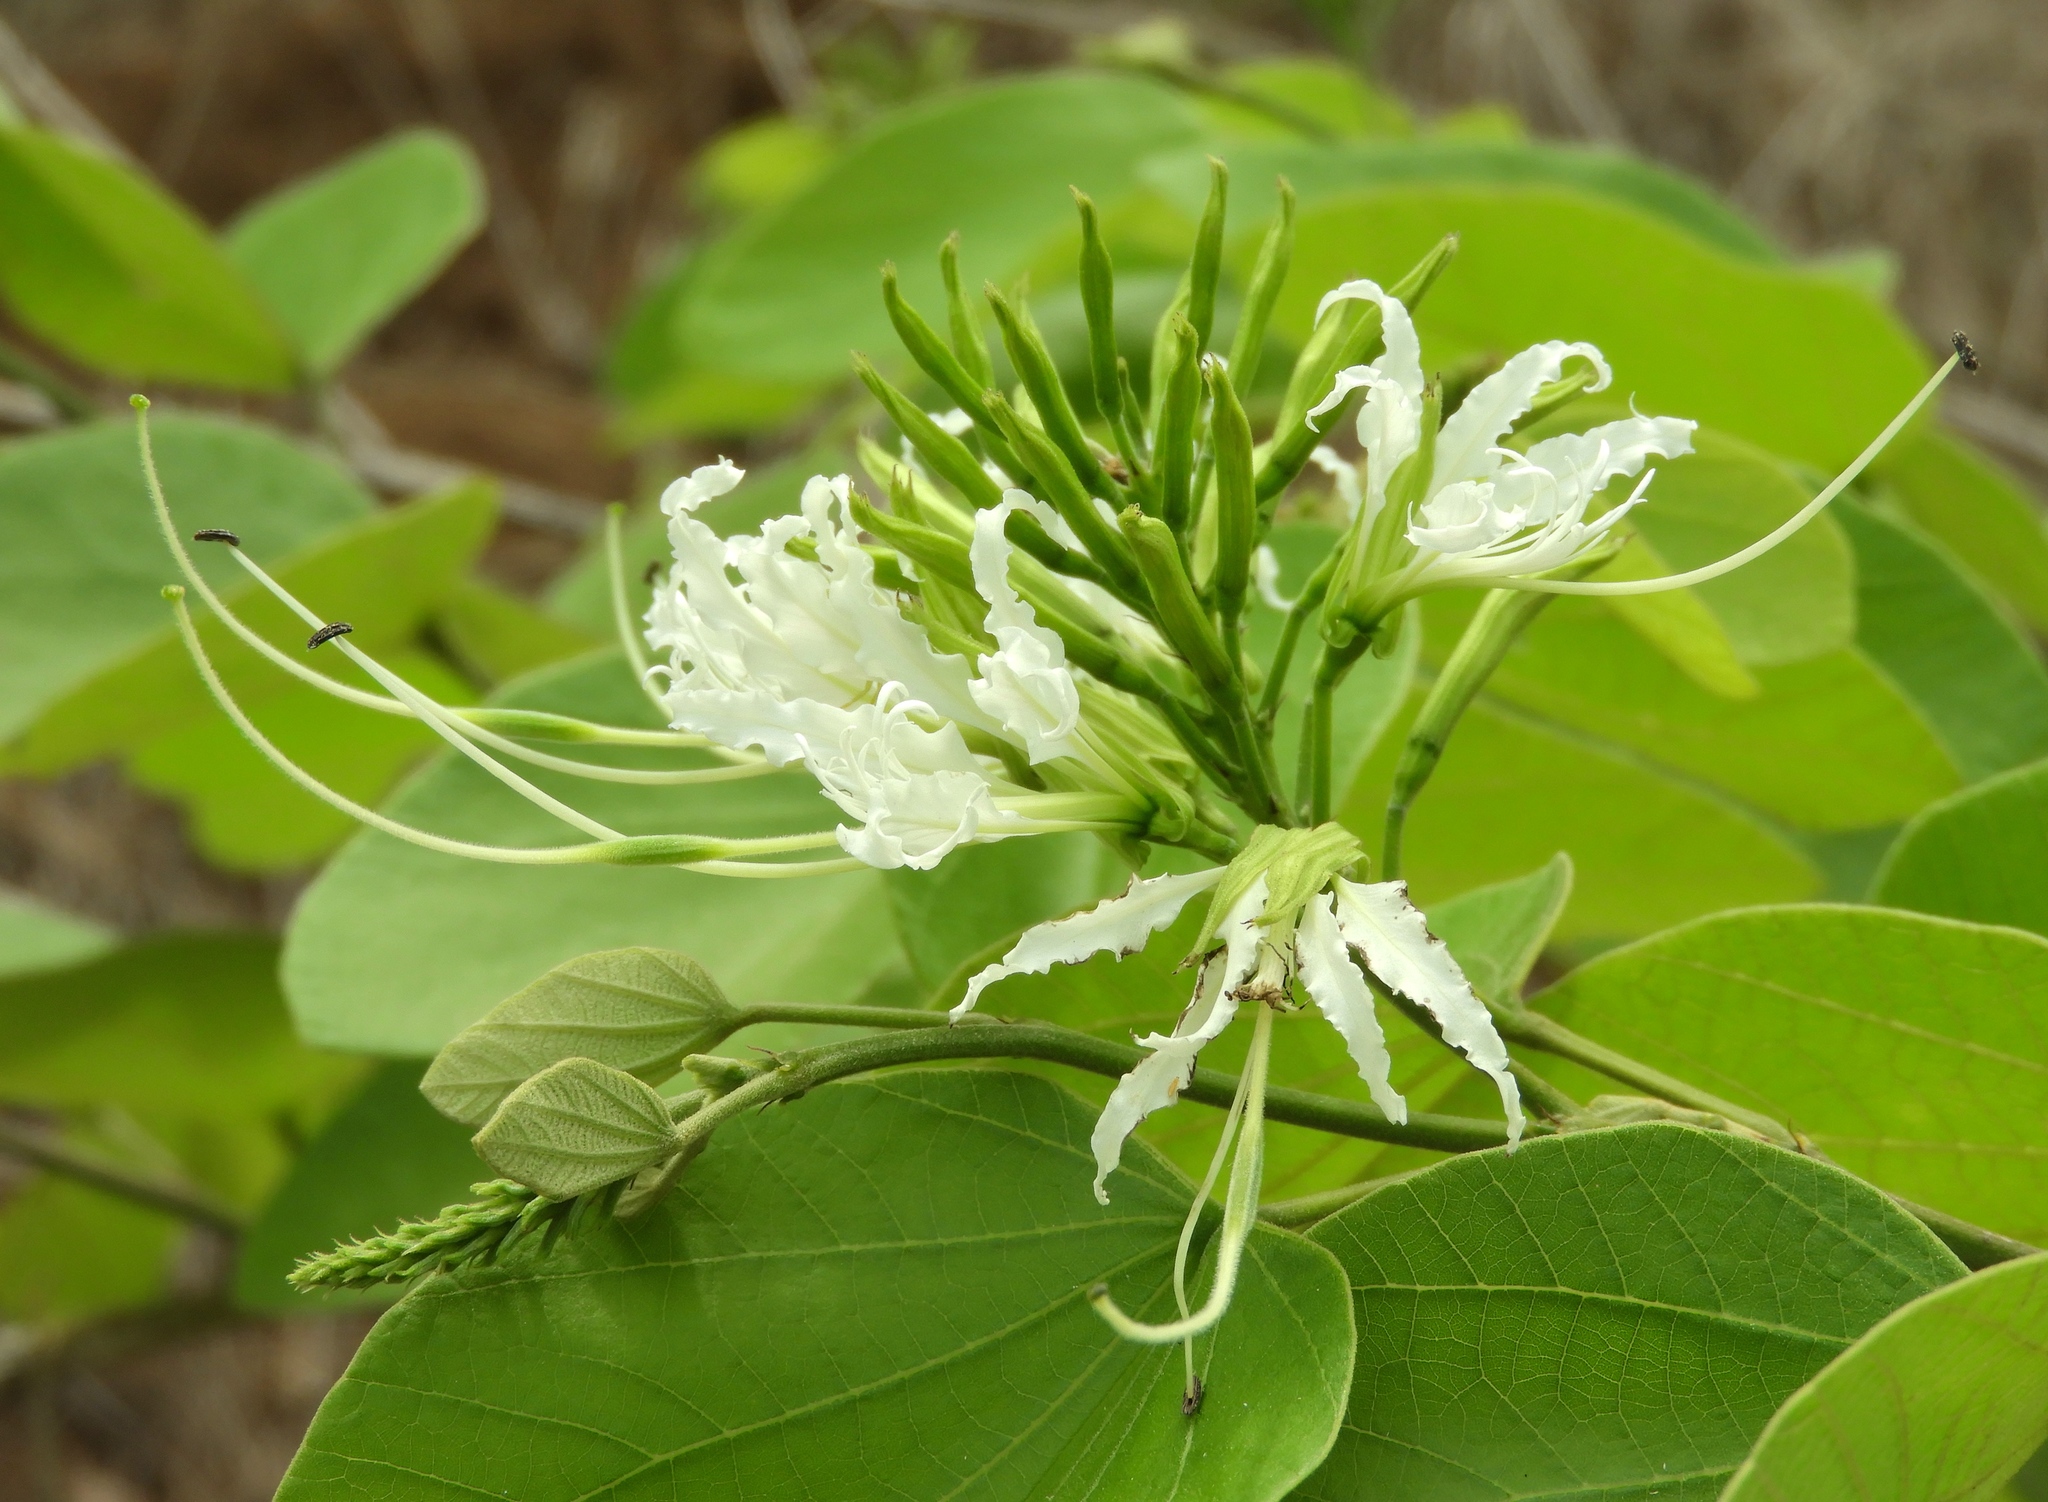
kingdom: Plantae
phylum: Tracheophyta
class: Magnoliopsida
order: Fabales
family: Fabaceae
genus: Bauhinia
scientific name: Bauhinia divaricata
